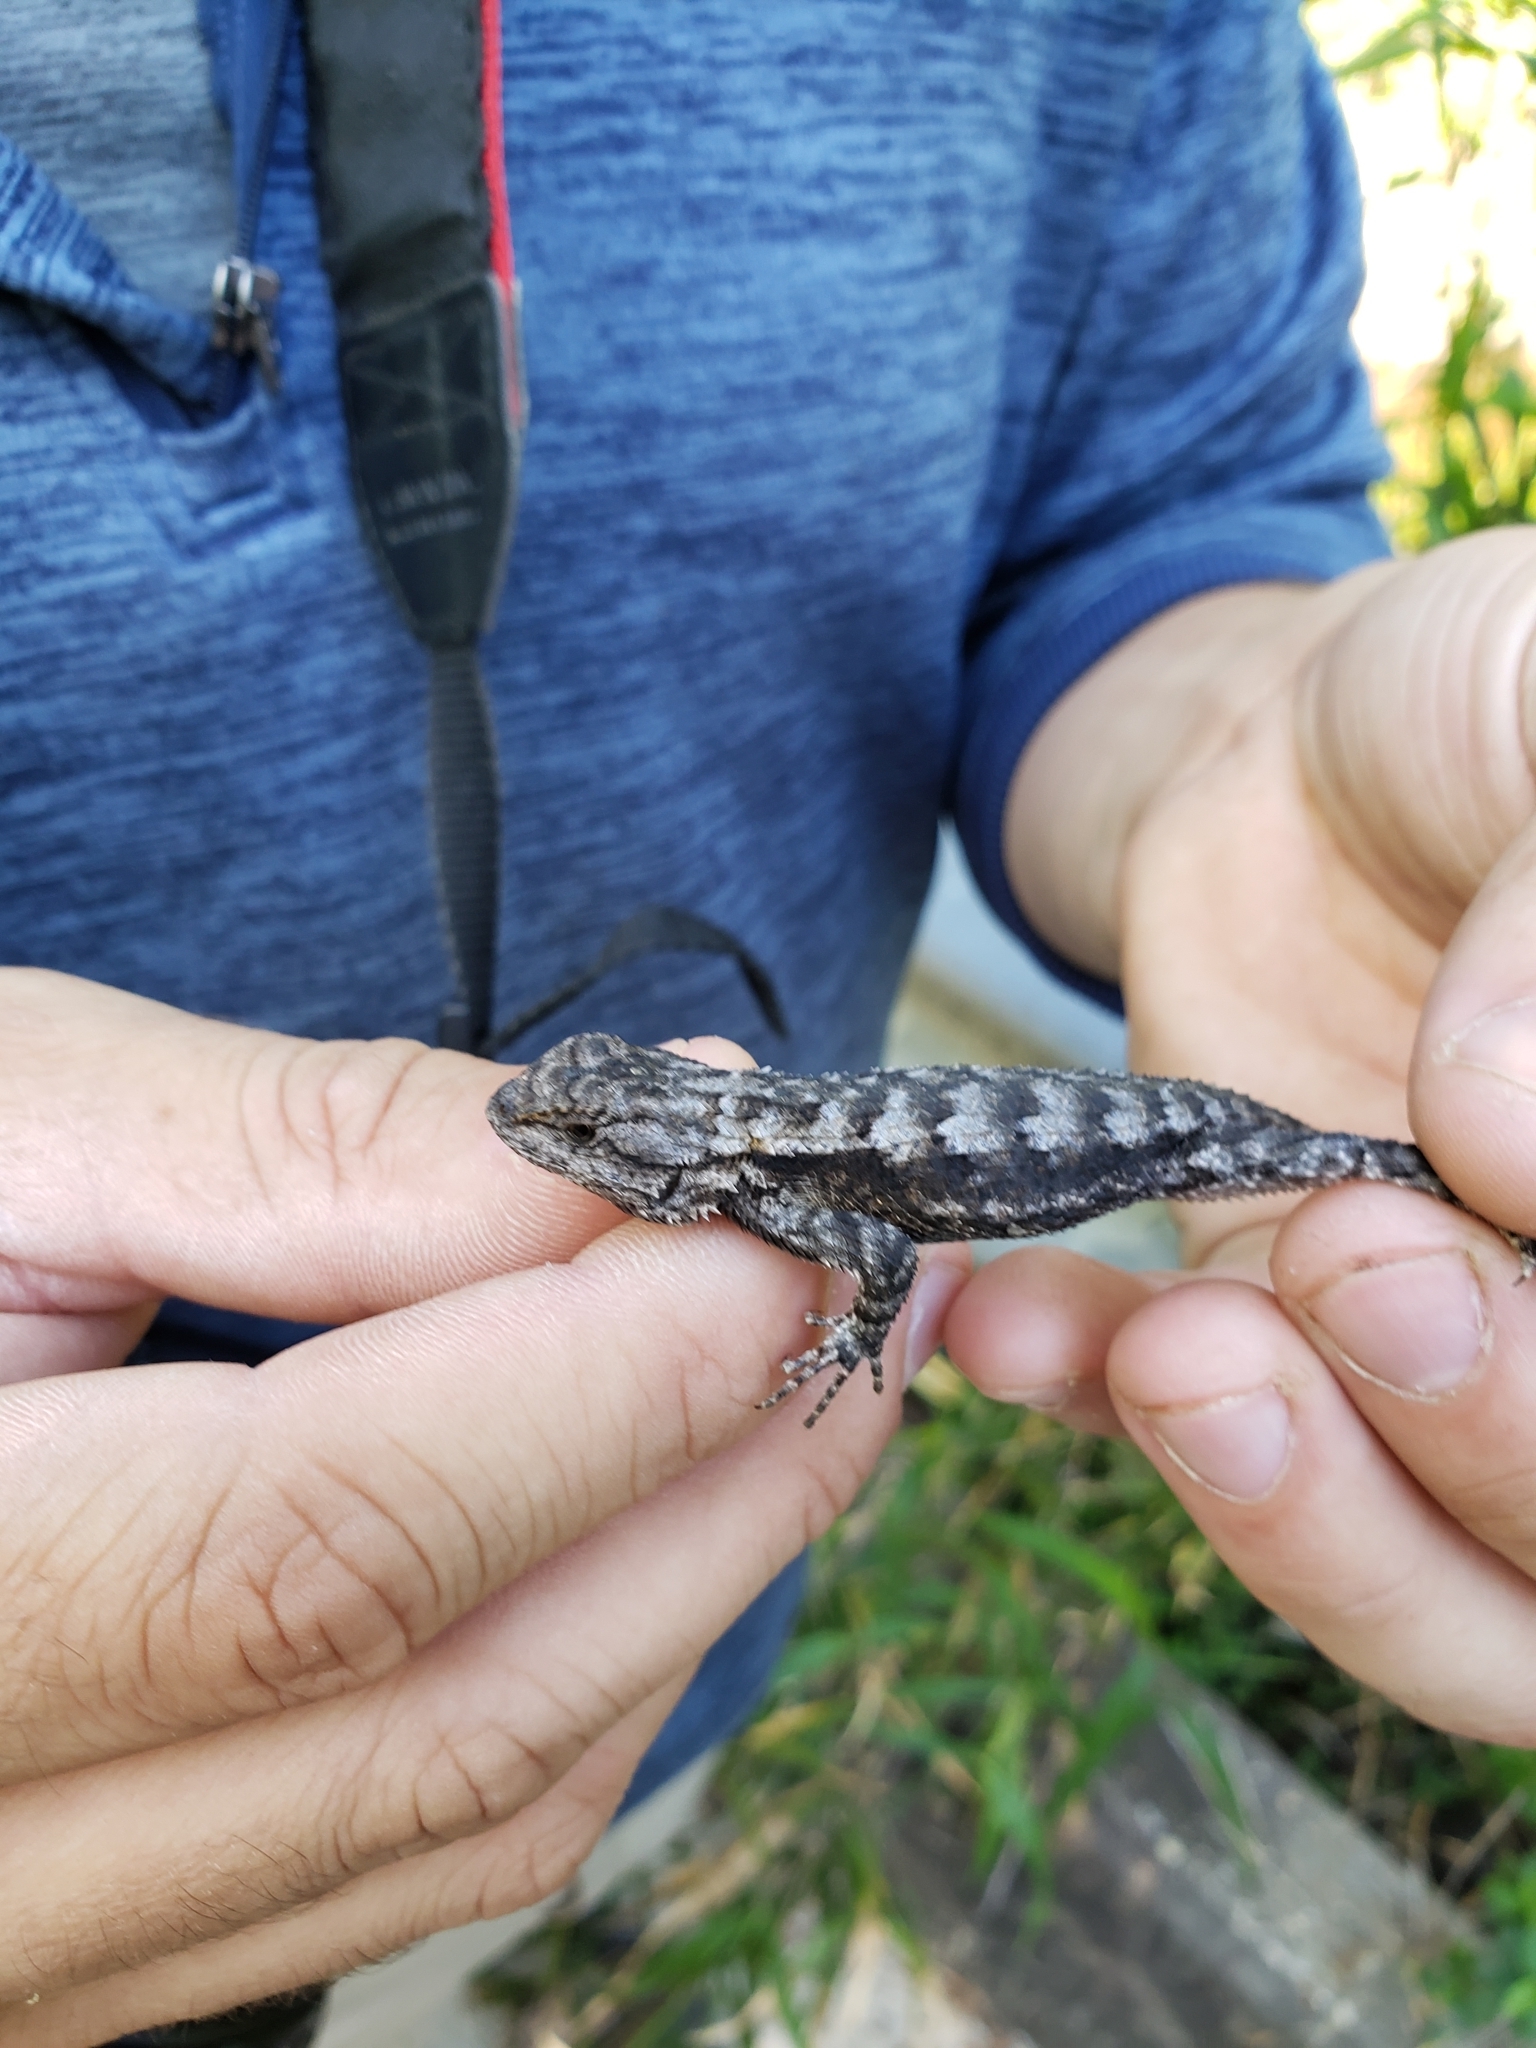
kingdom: Animalia
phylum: Chordata
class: Squamata
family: Phrynosomatidae
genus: Sceloporus
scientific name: Sceloporus undulatus
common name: Eastern fence lizard
